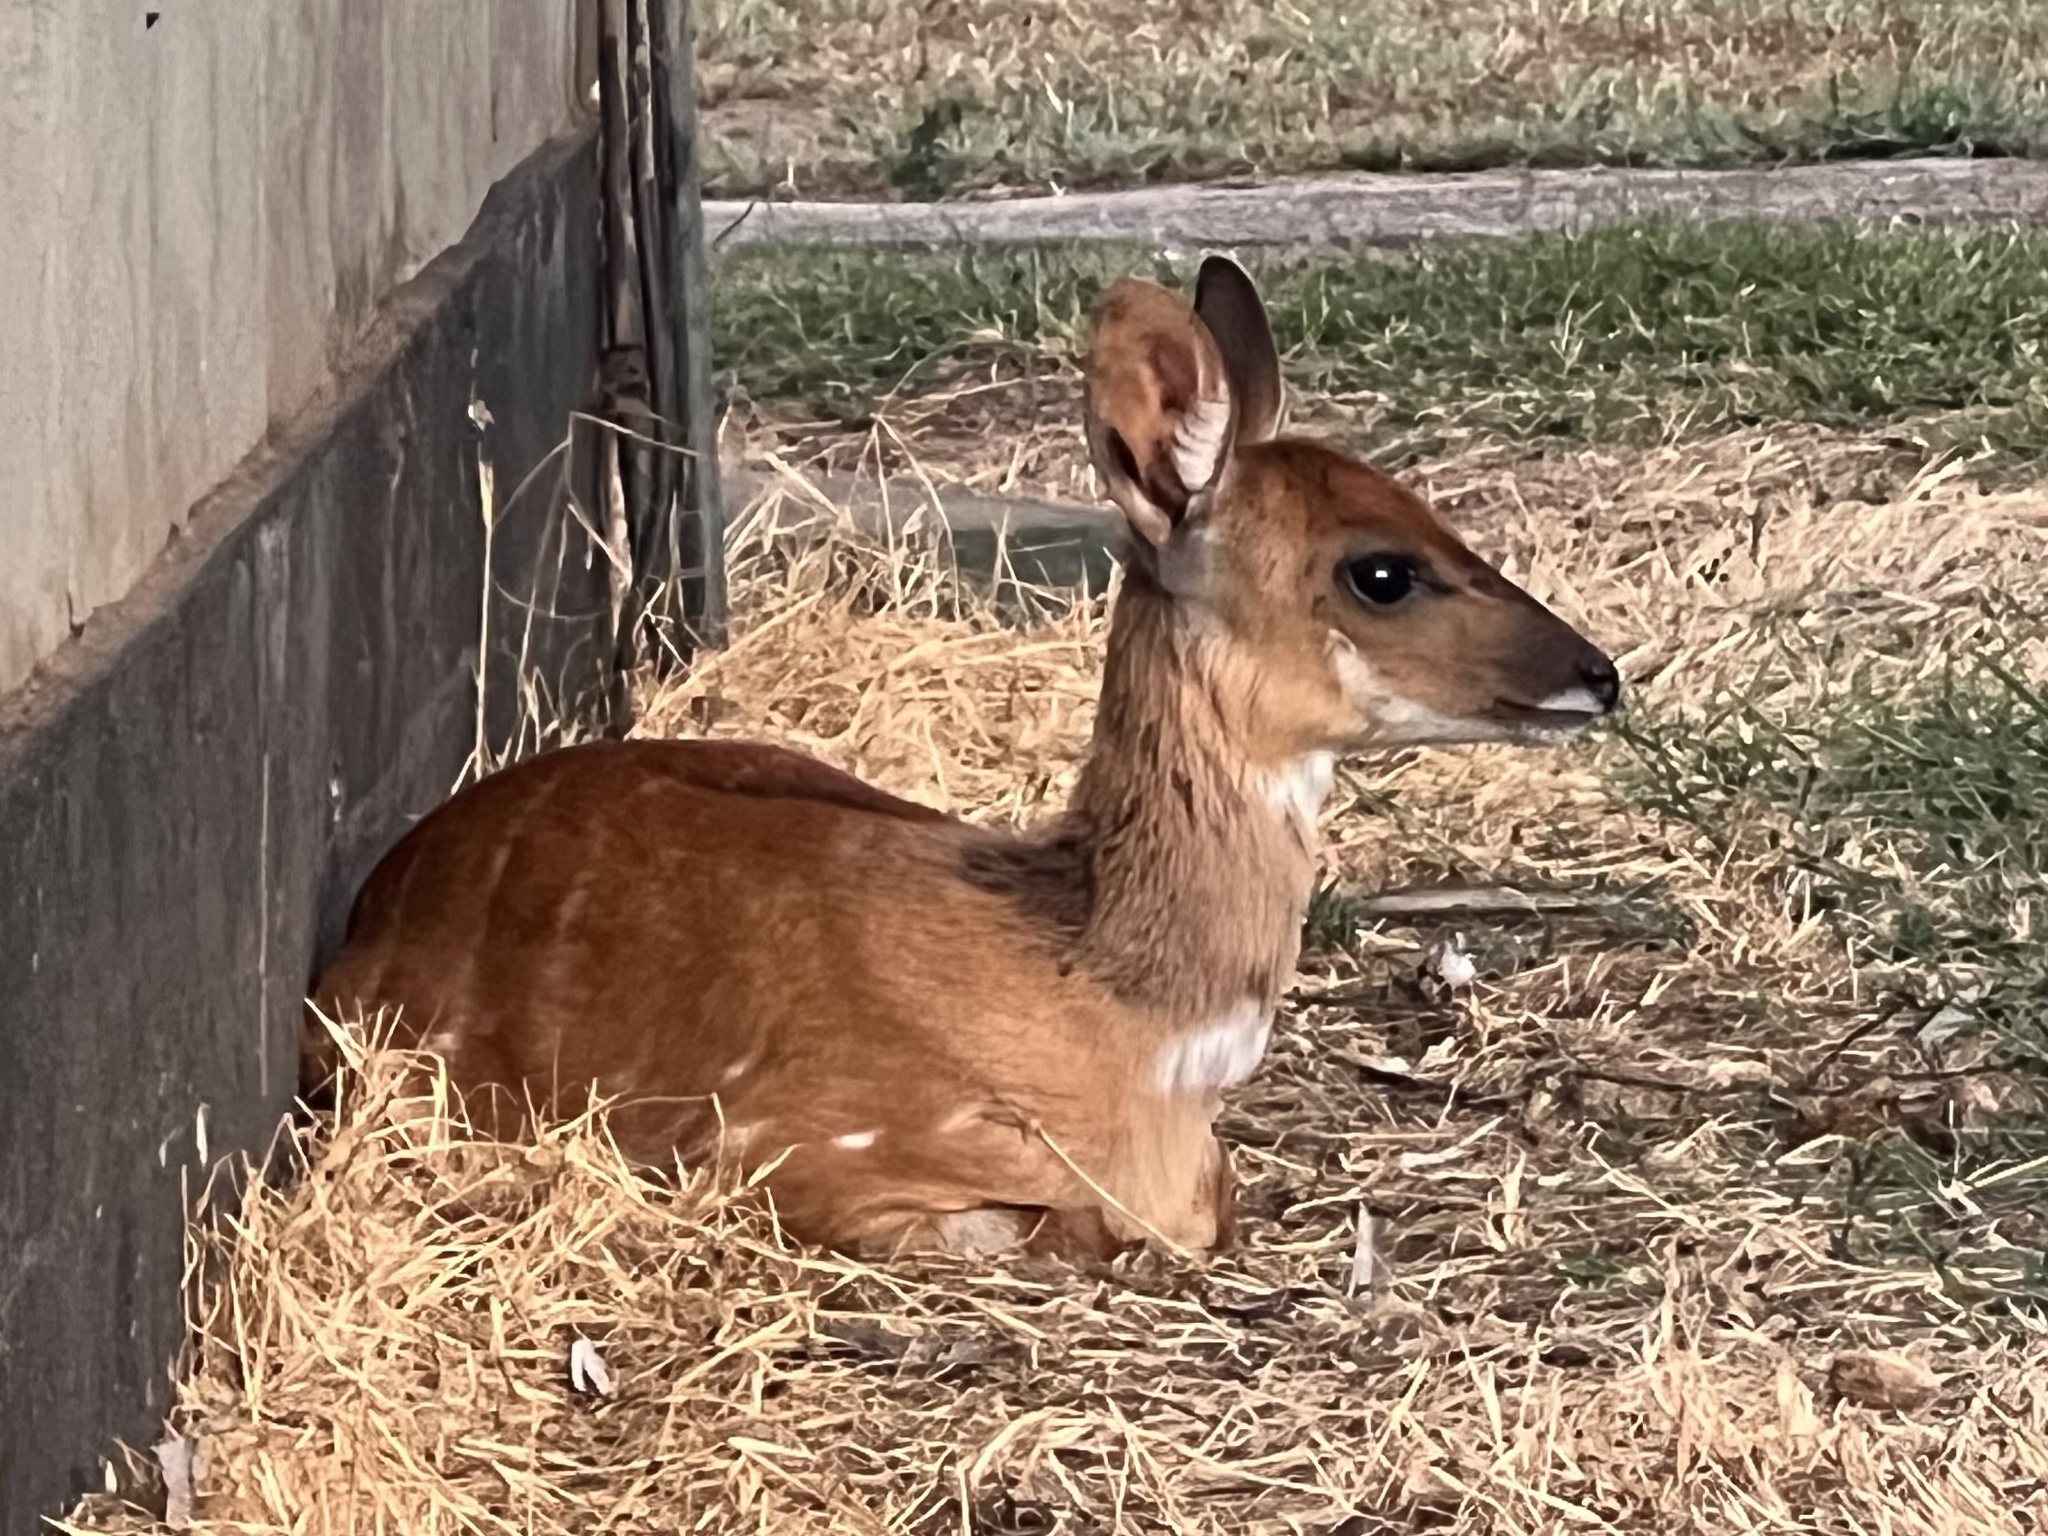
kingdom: Animalia
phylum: Chordata
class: Mammalia
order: Artiodactyla
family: Bovidae
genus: Tragelaphus
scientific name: Tragelaphus scriptus
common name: Bushbuck
